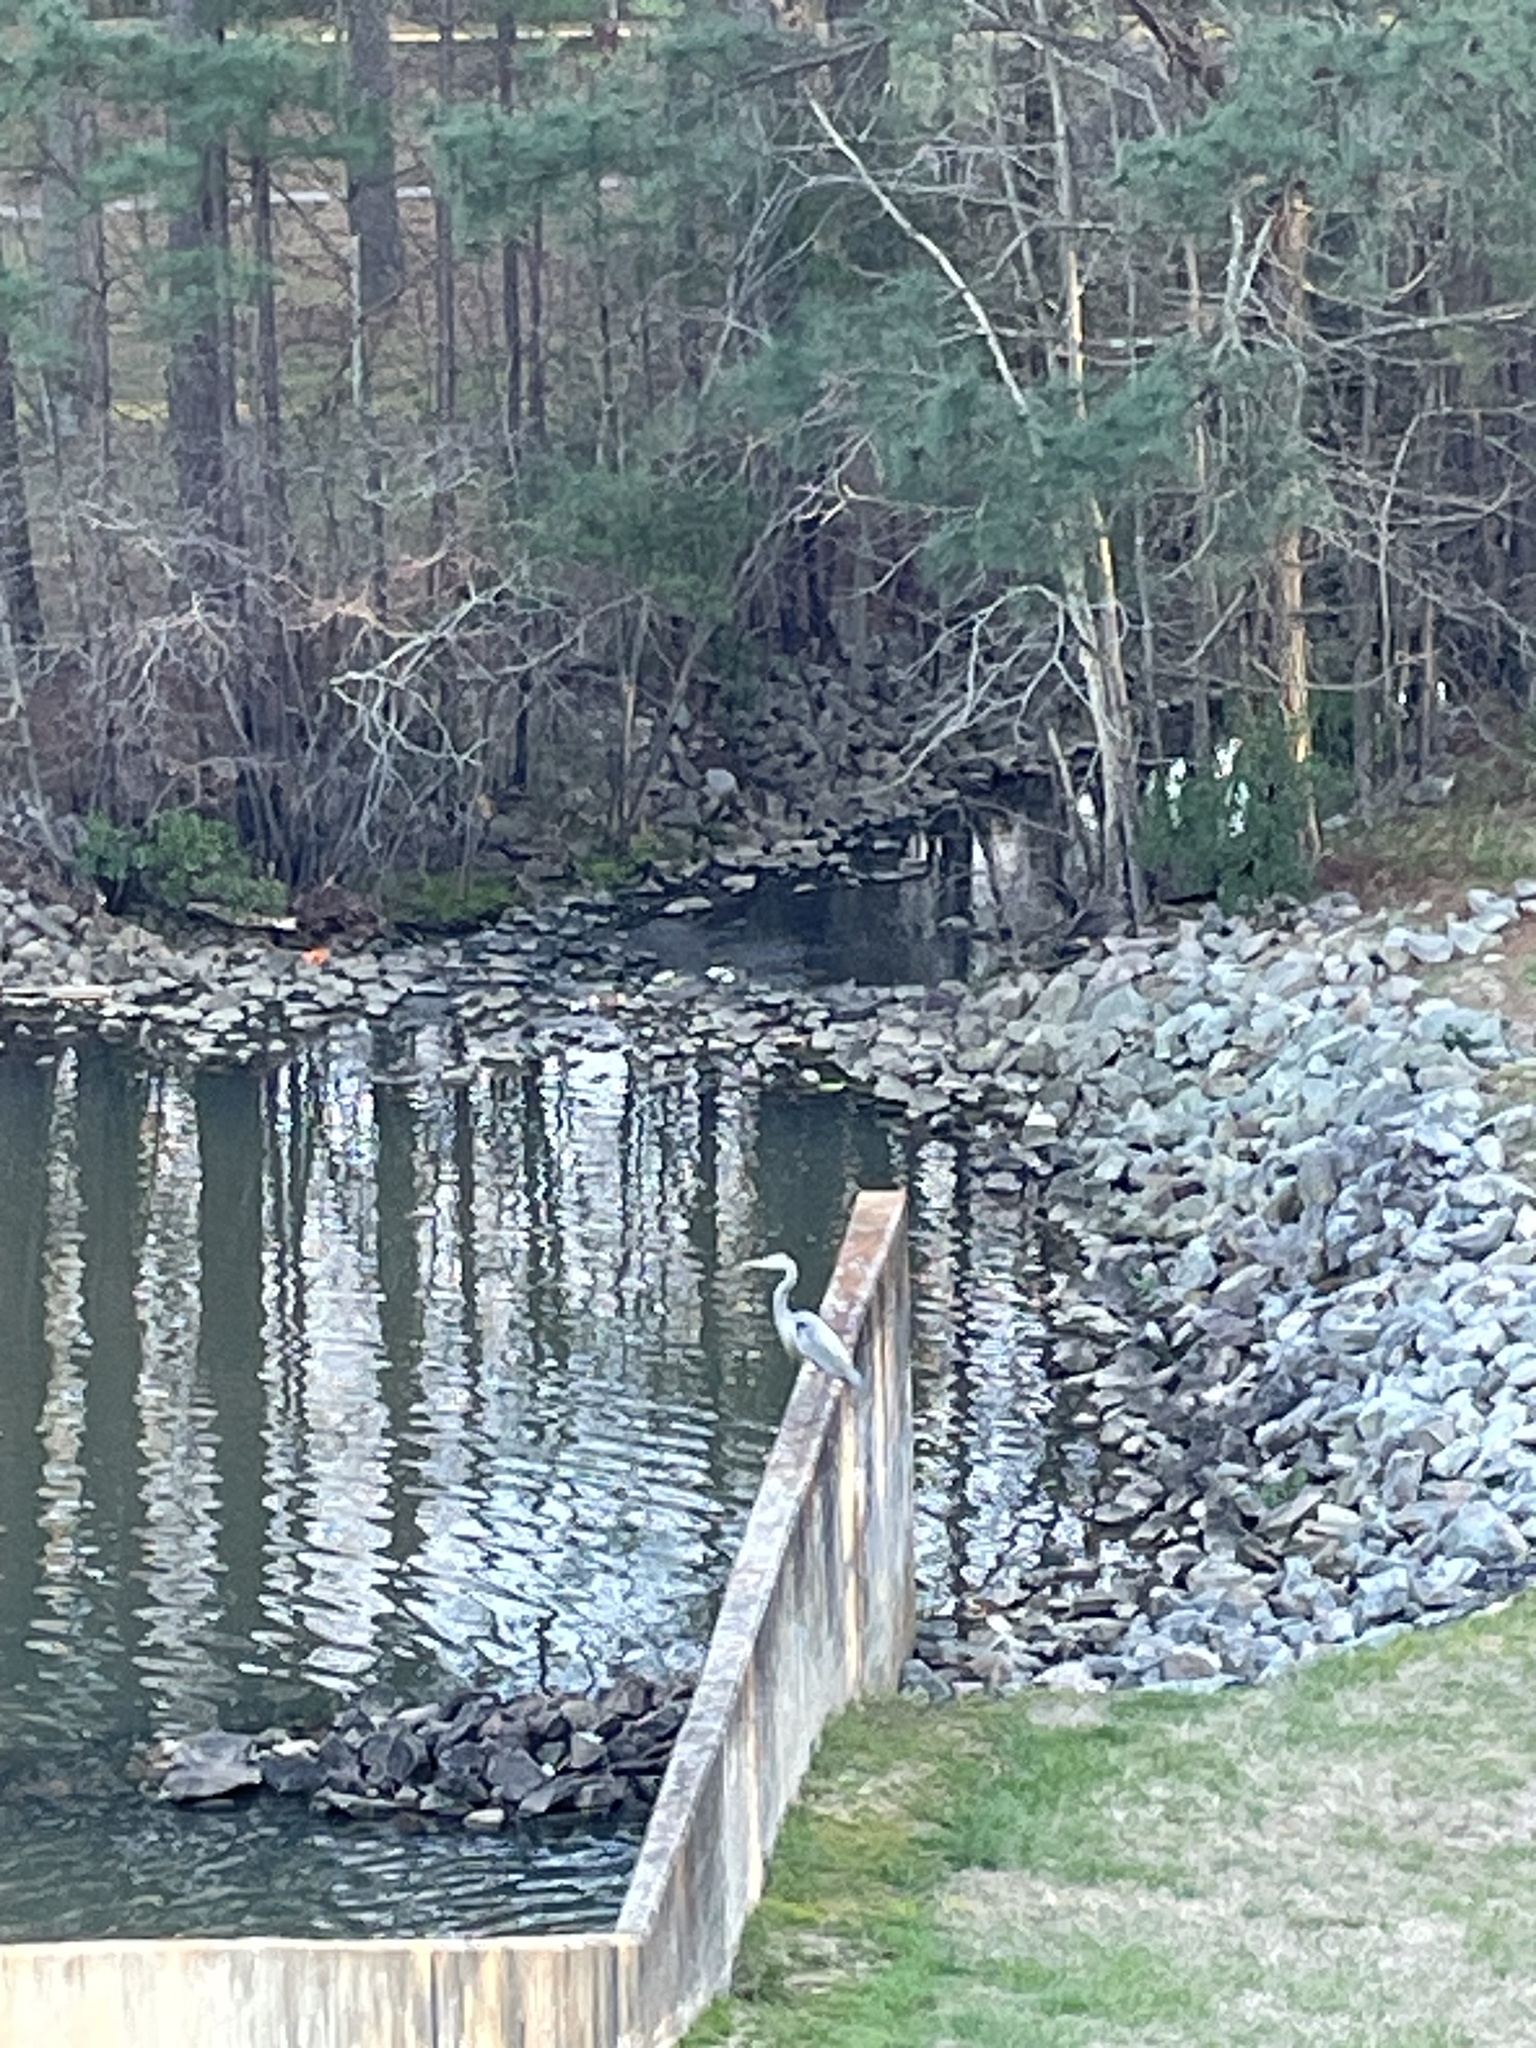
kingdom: Animalia
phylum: Chordata
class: Aves
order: Pelecaniformes
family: Ardeidae
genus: Ardea
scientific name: Ardea herodias
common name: Great blue heron
